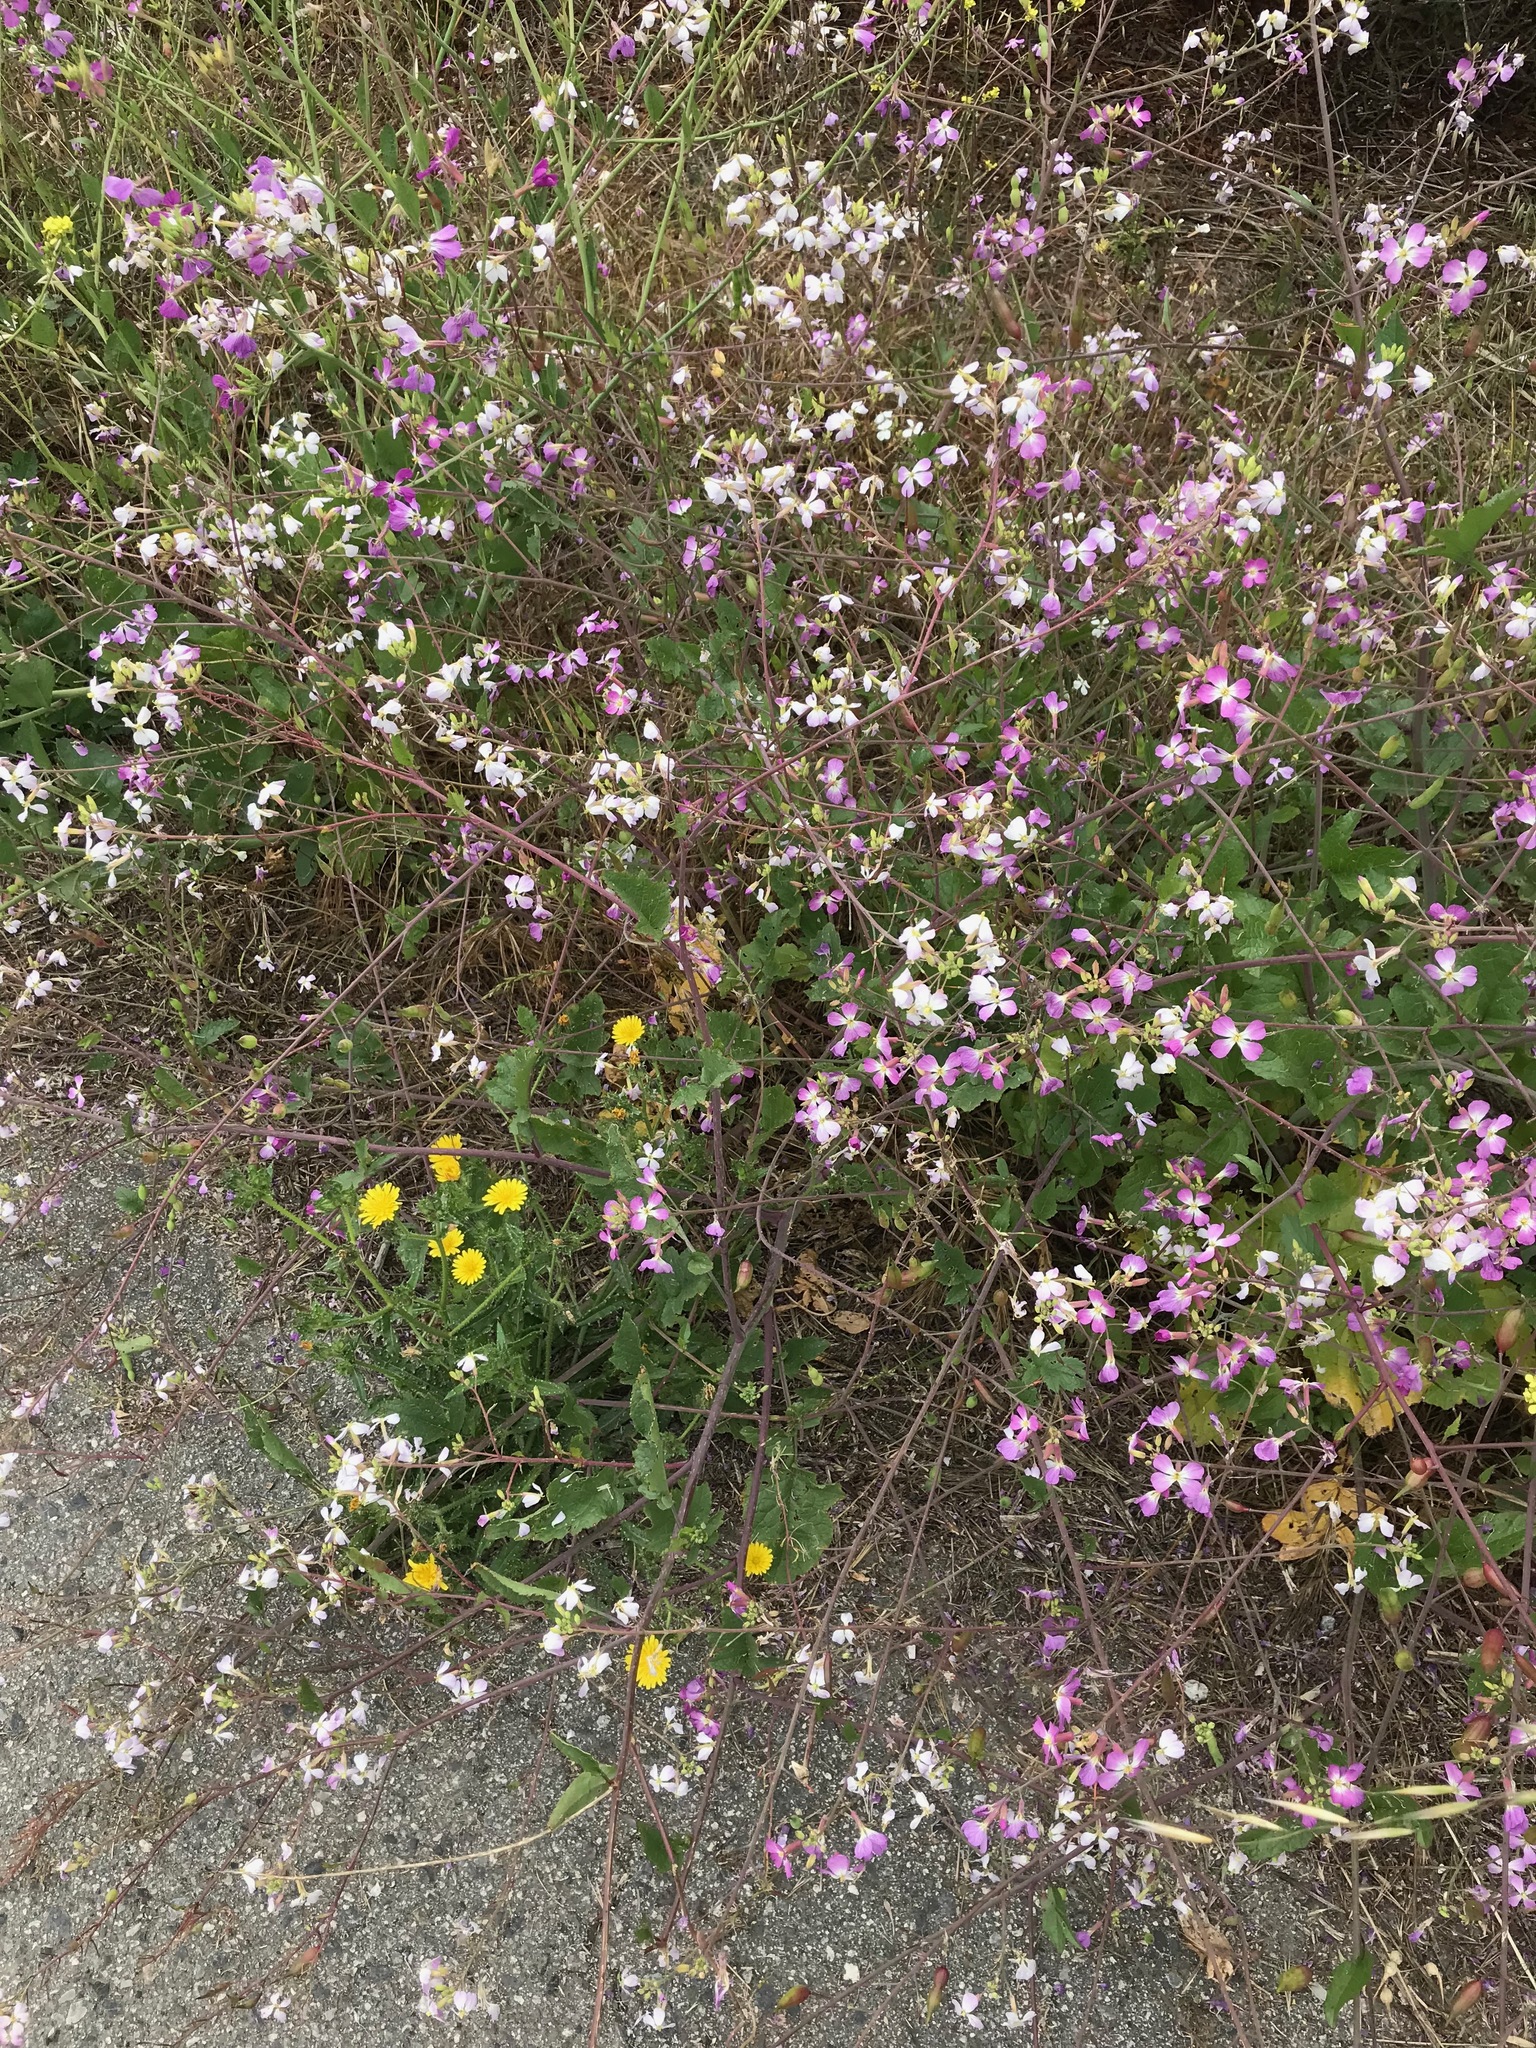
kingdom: Plantae
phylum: Tracheophyta
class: Magnoliopsida
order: Brassicales
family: Brassicaceae
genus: Raphanus
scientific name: Raphanus sativus
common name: Cultivated radish
